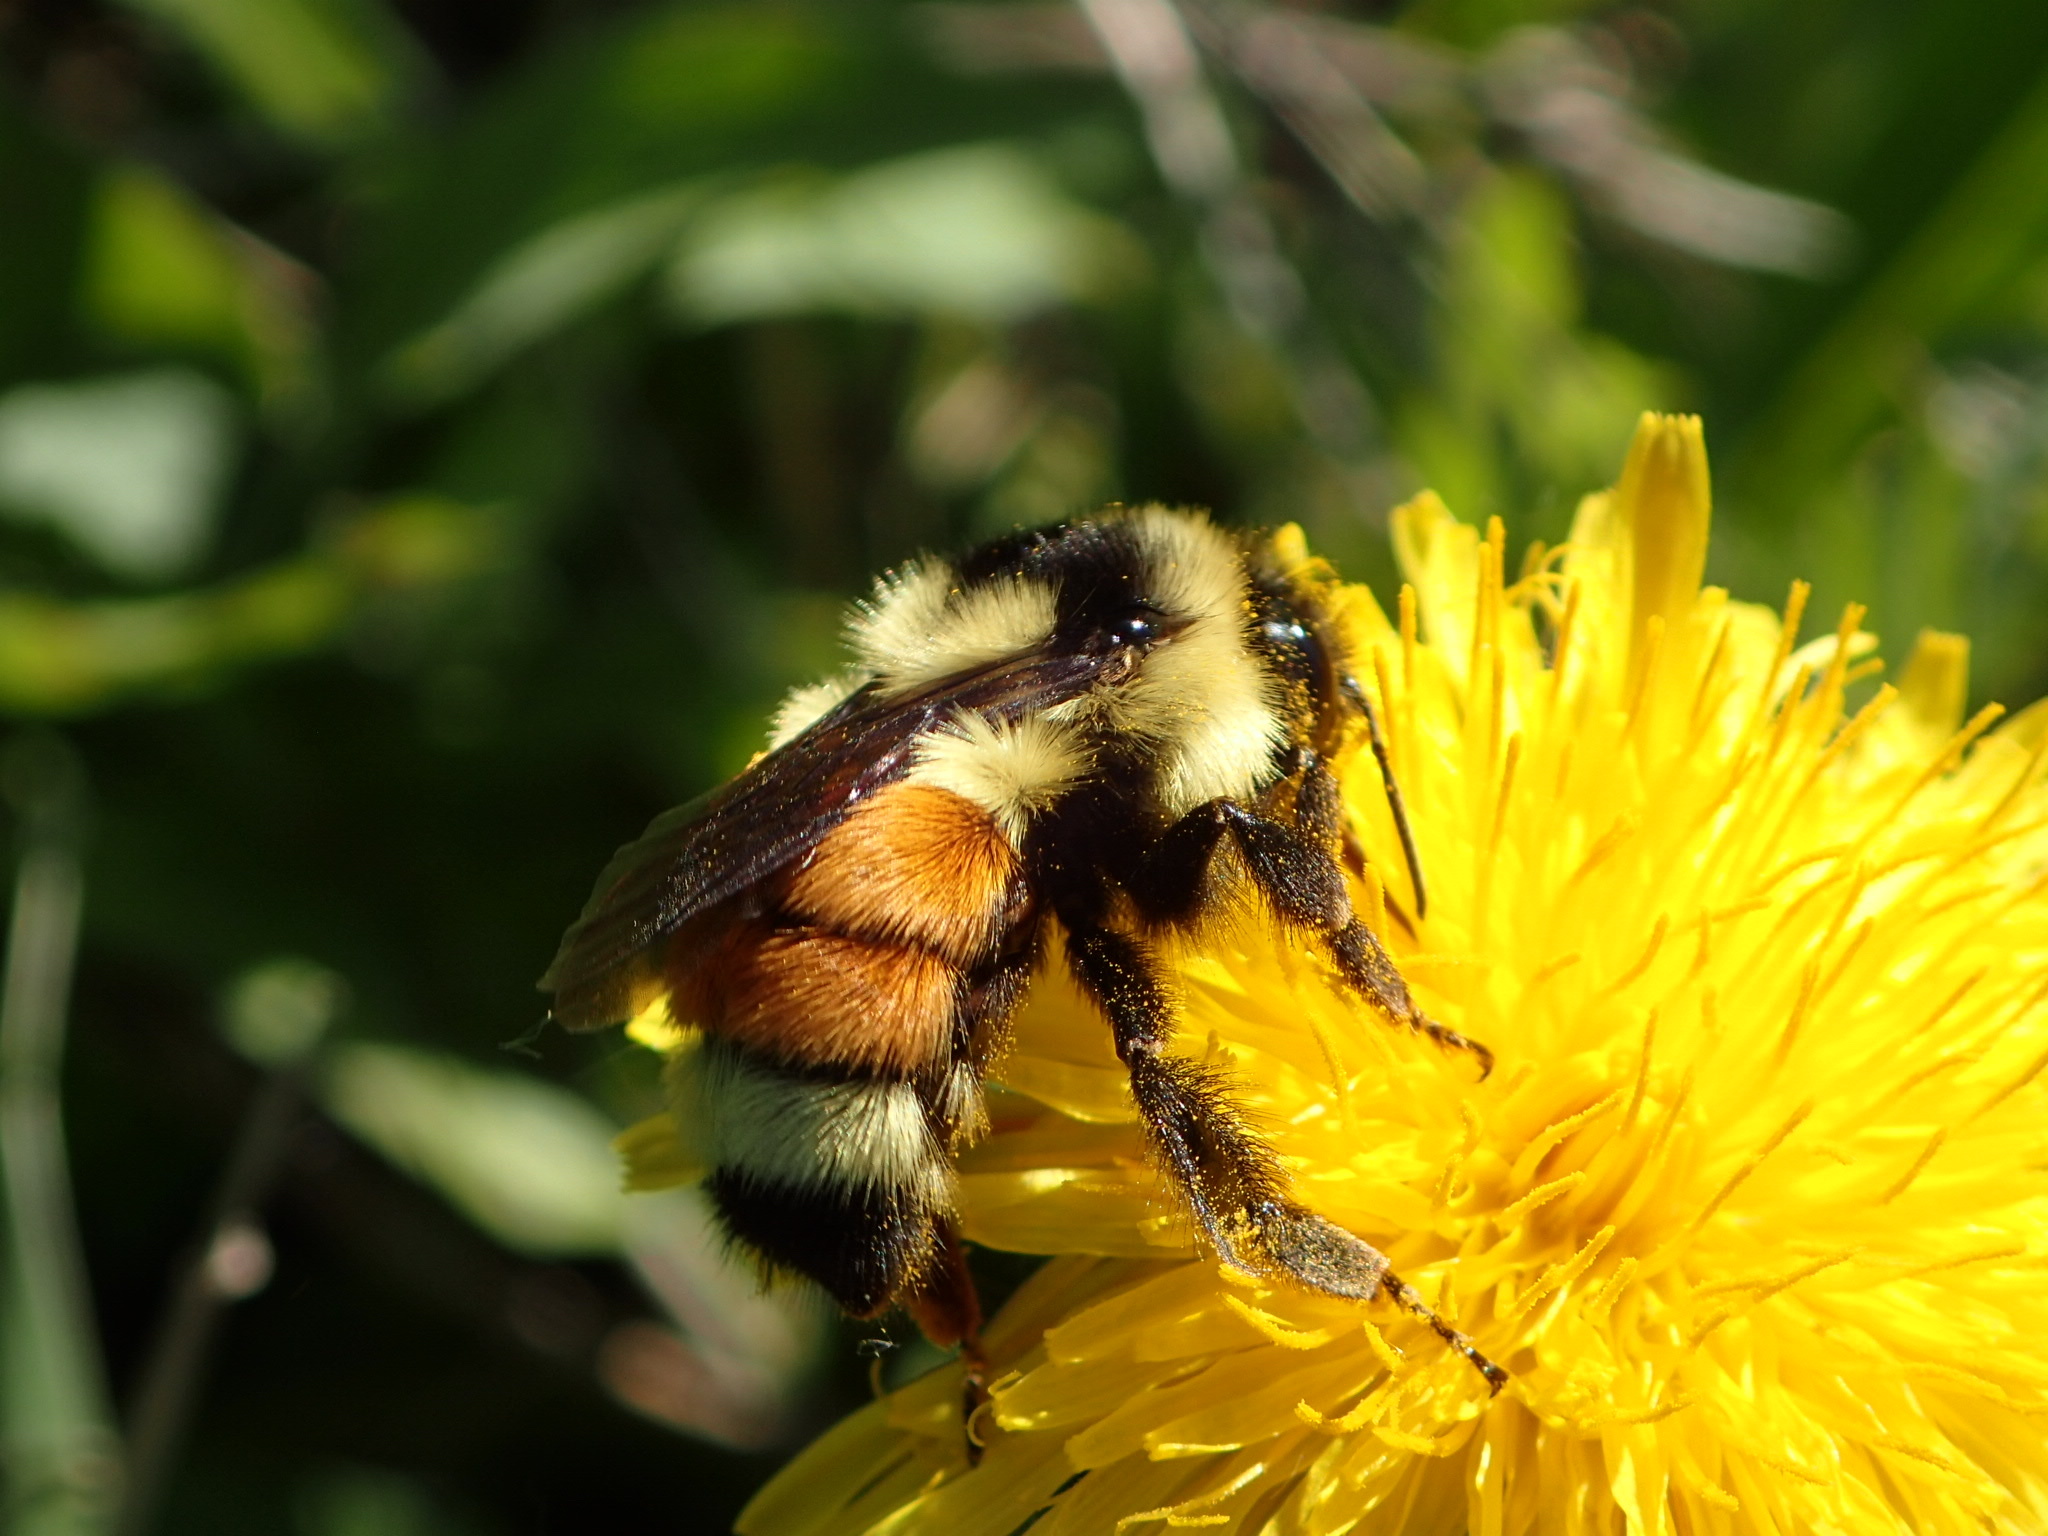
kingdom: Animalia
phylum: Arthropoda
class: Insecta
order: Hymenoptera
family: Apidae
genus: Bombus
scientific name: Bombus ternarius
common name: Tri-colored bumble bee
